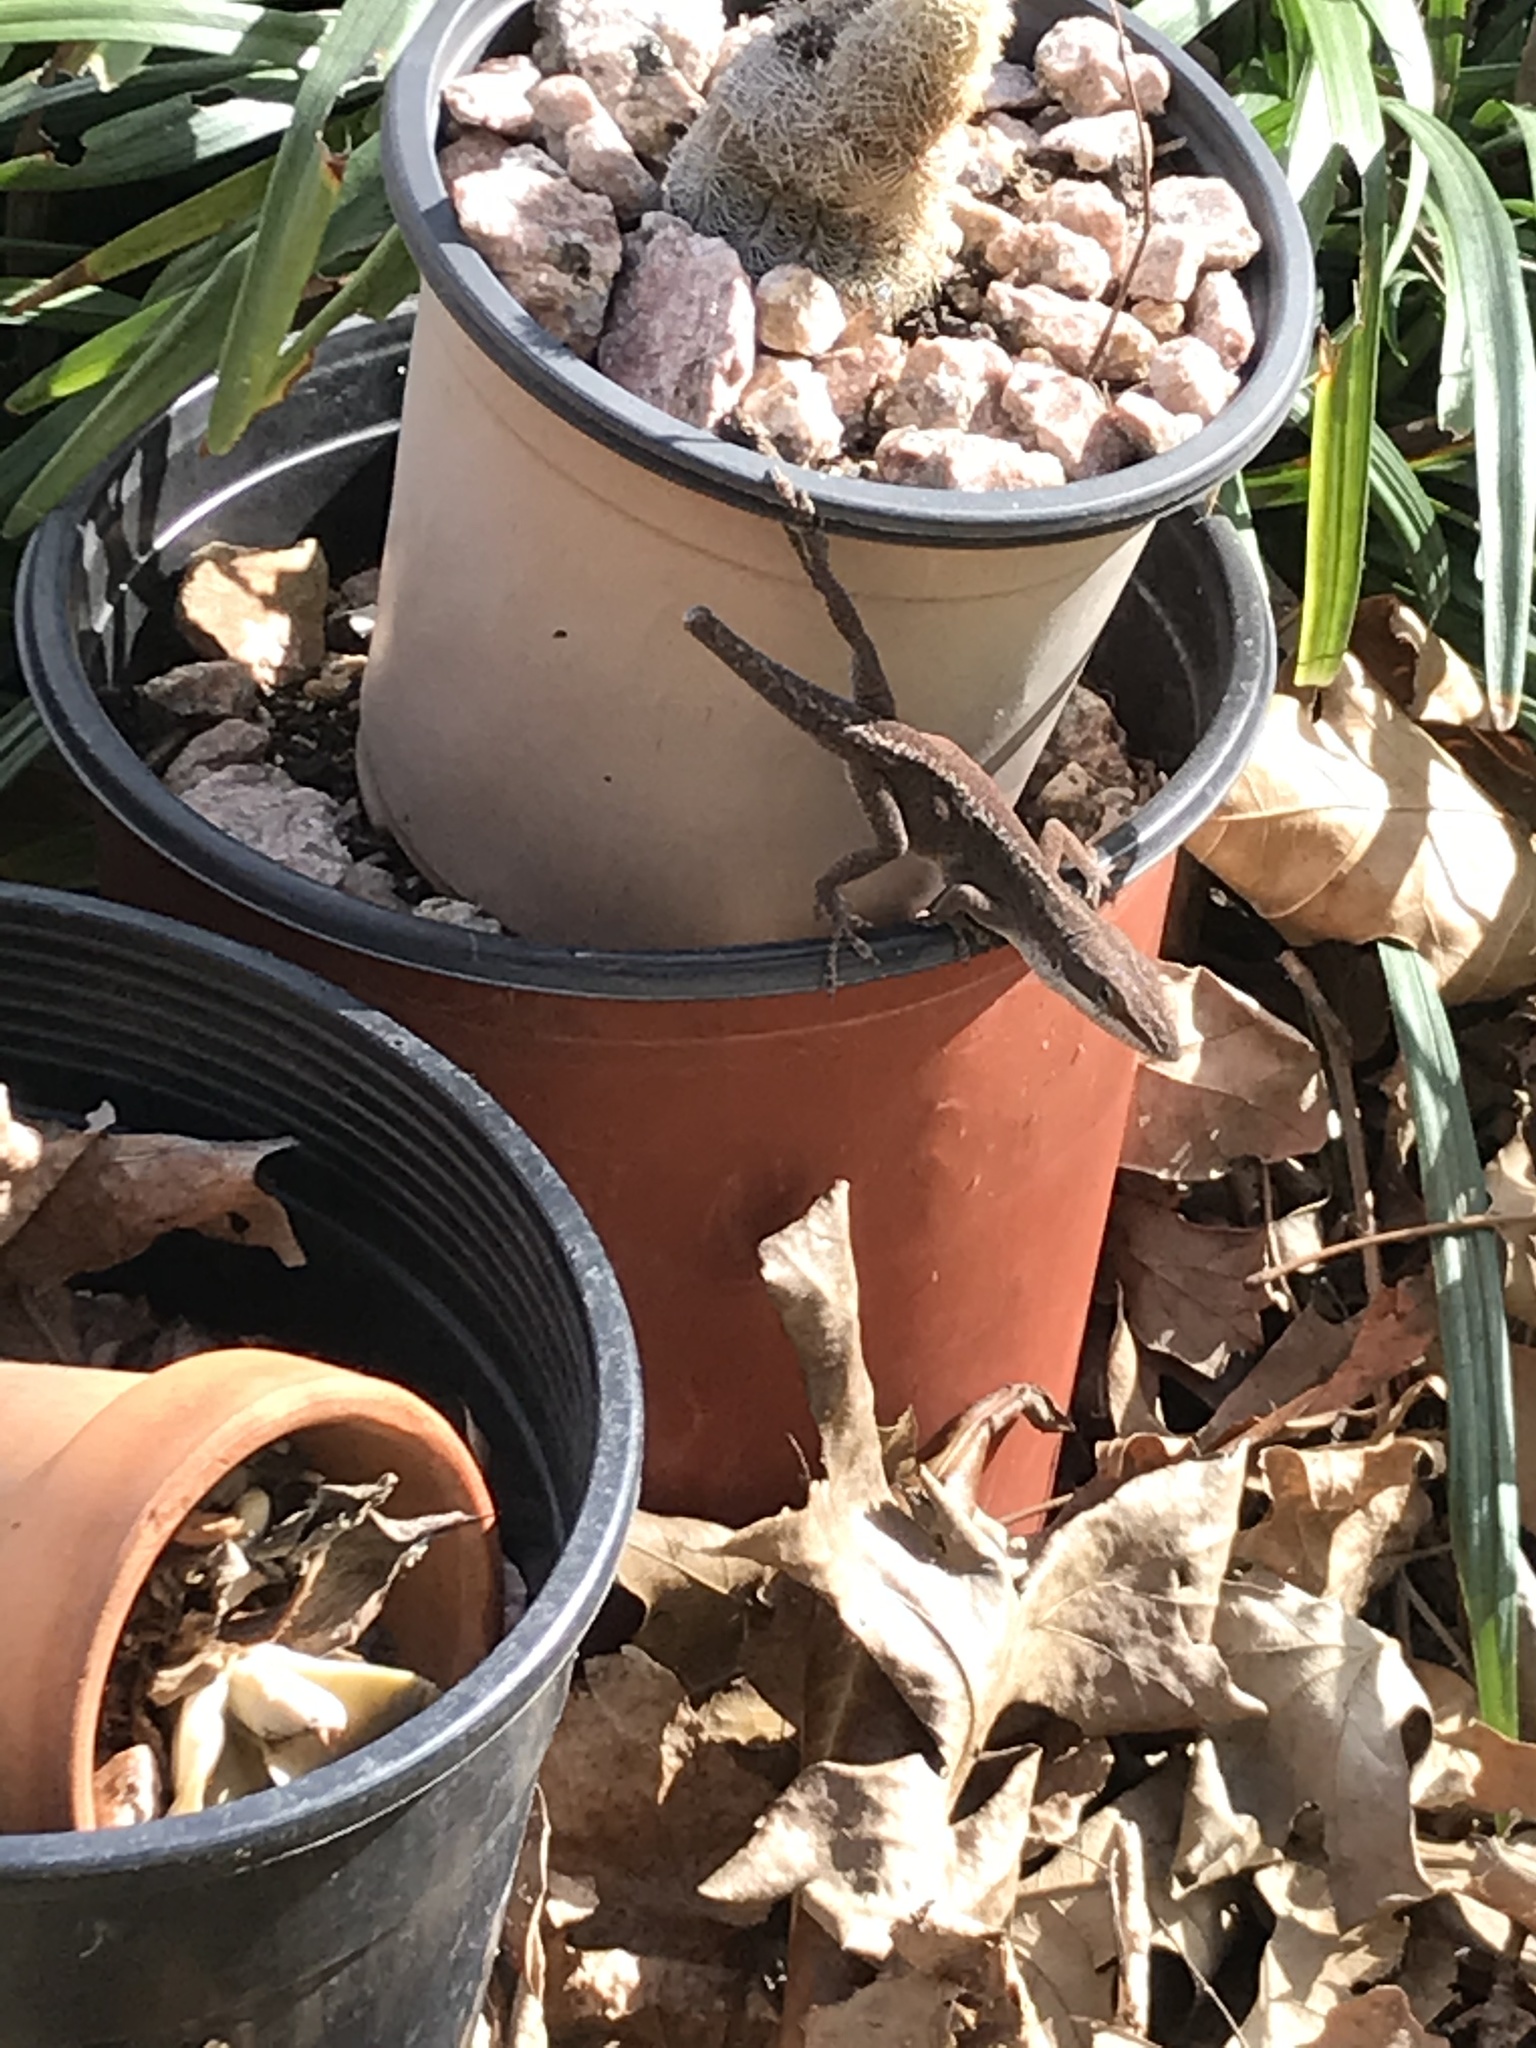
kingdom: Animalia
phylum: Chordata
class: Squamata
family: Dactyloidae
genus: Anolis
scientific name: Anolis carolinensis
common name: Green anole
